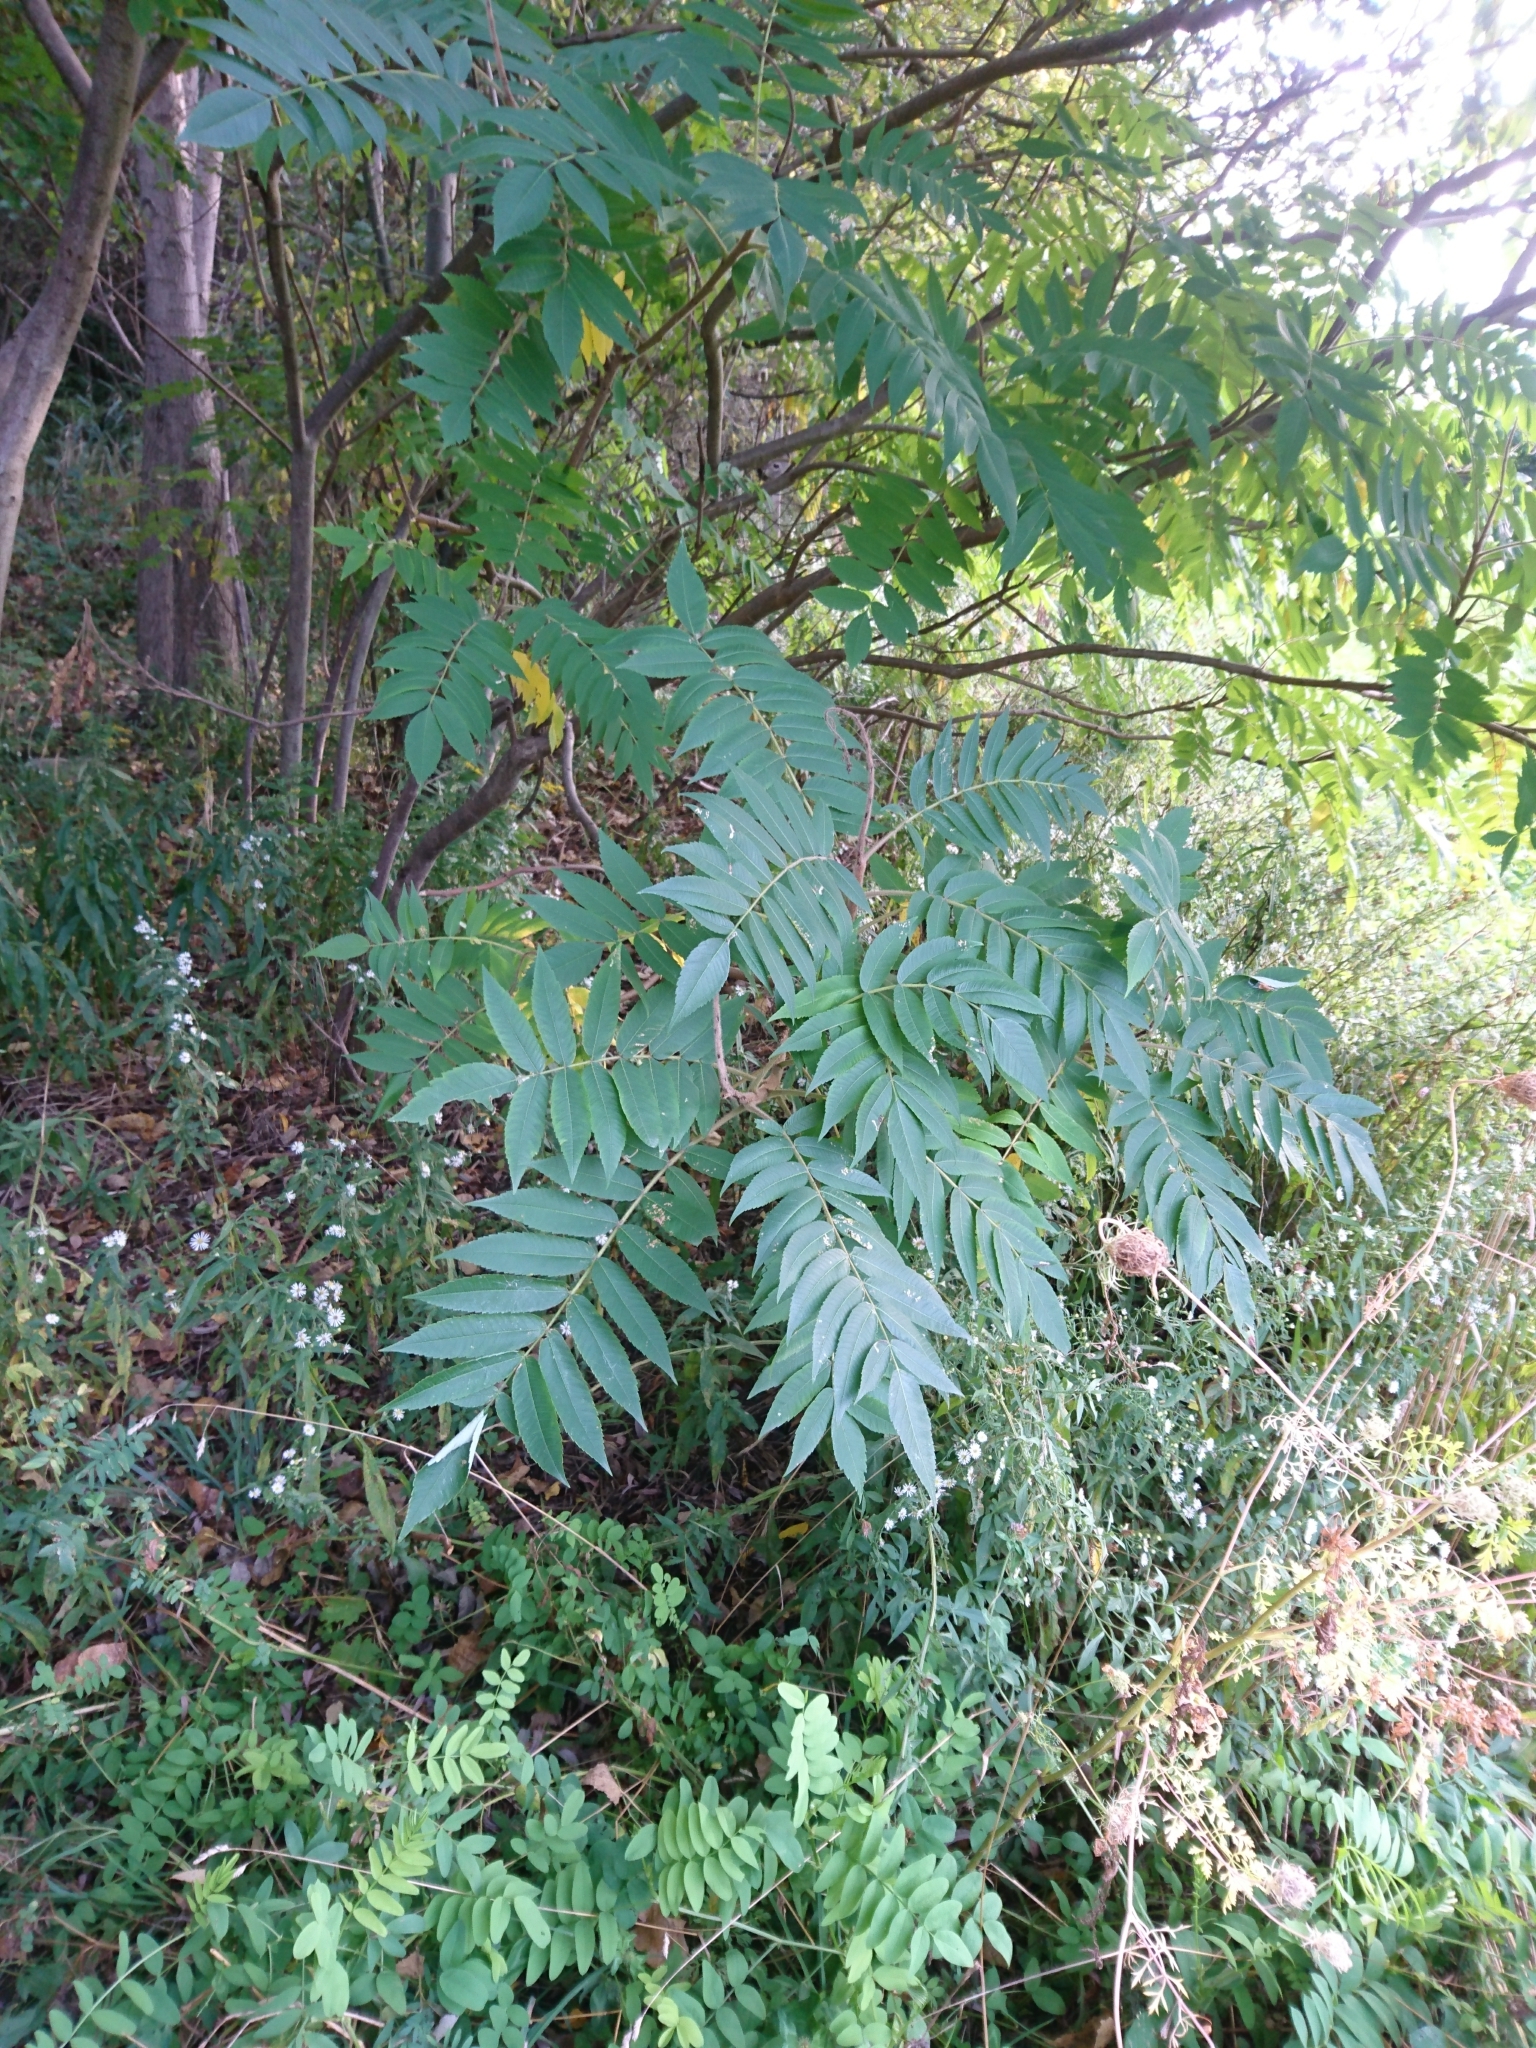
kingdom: Plantae
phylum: Tracheophyta
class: Magnoliopsida
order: Sapindales
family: Anacardiaceae
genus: Rhus
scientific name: Rhus typhina
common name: Staghorn sumac
